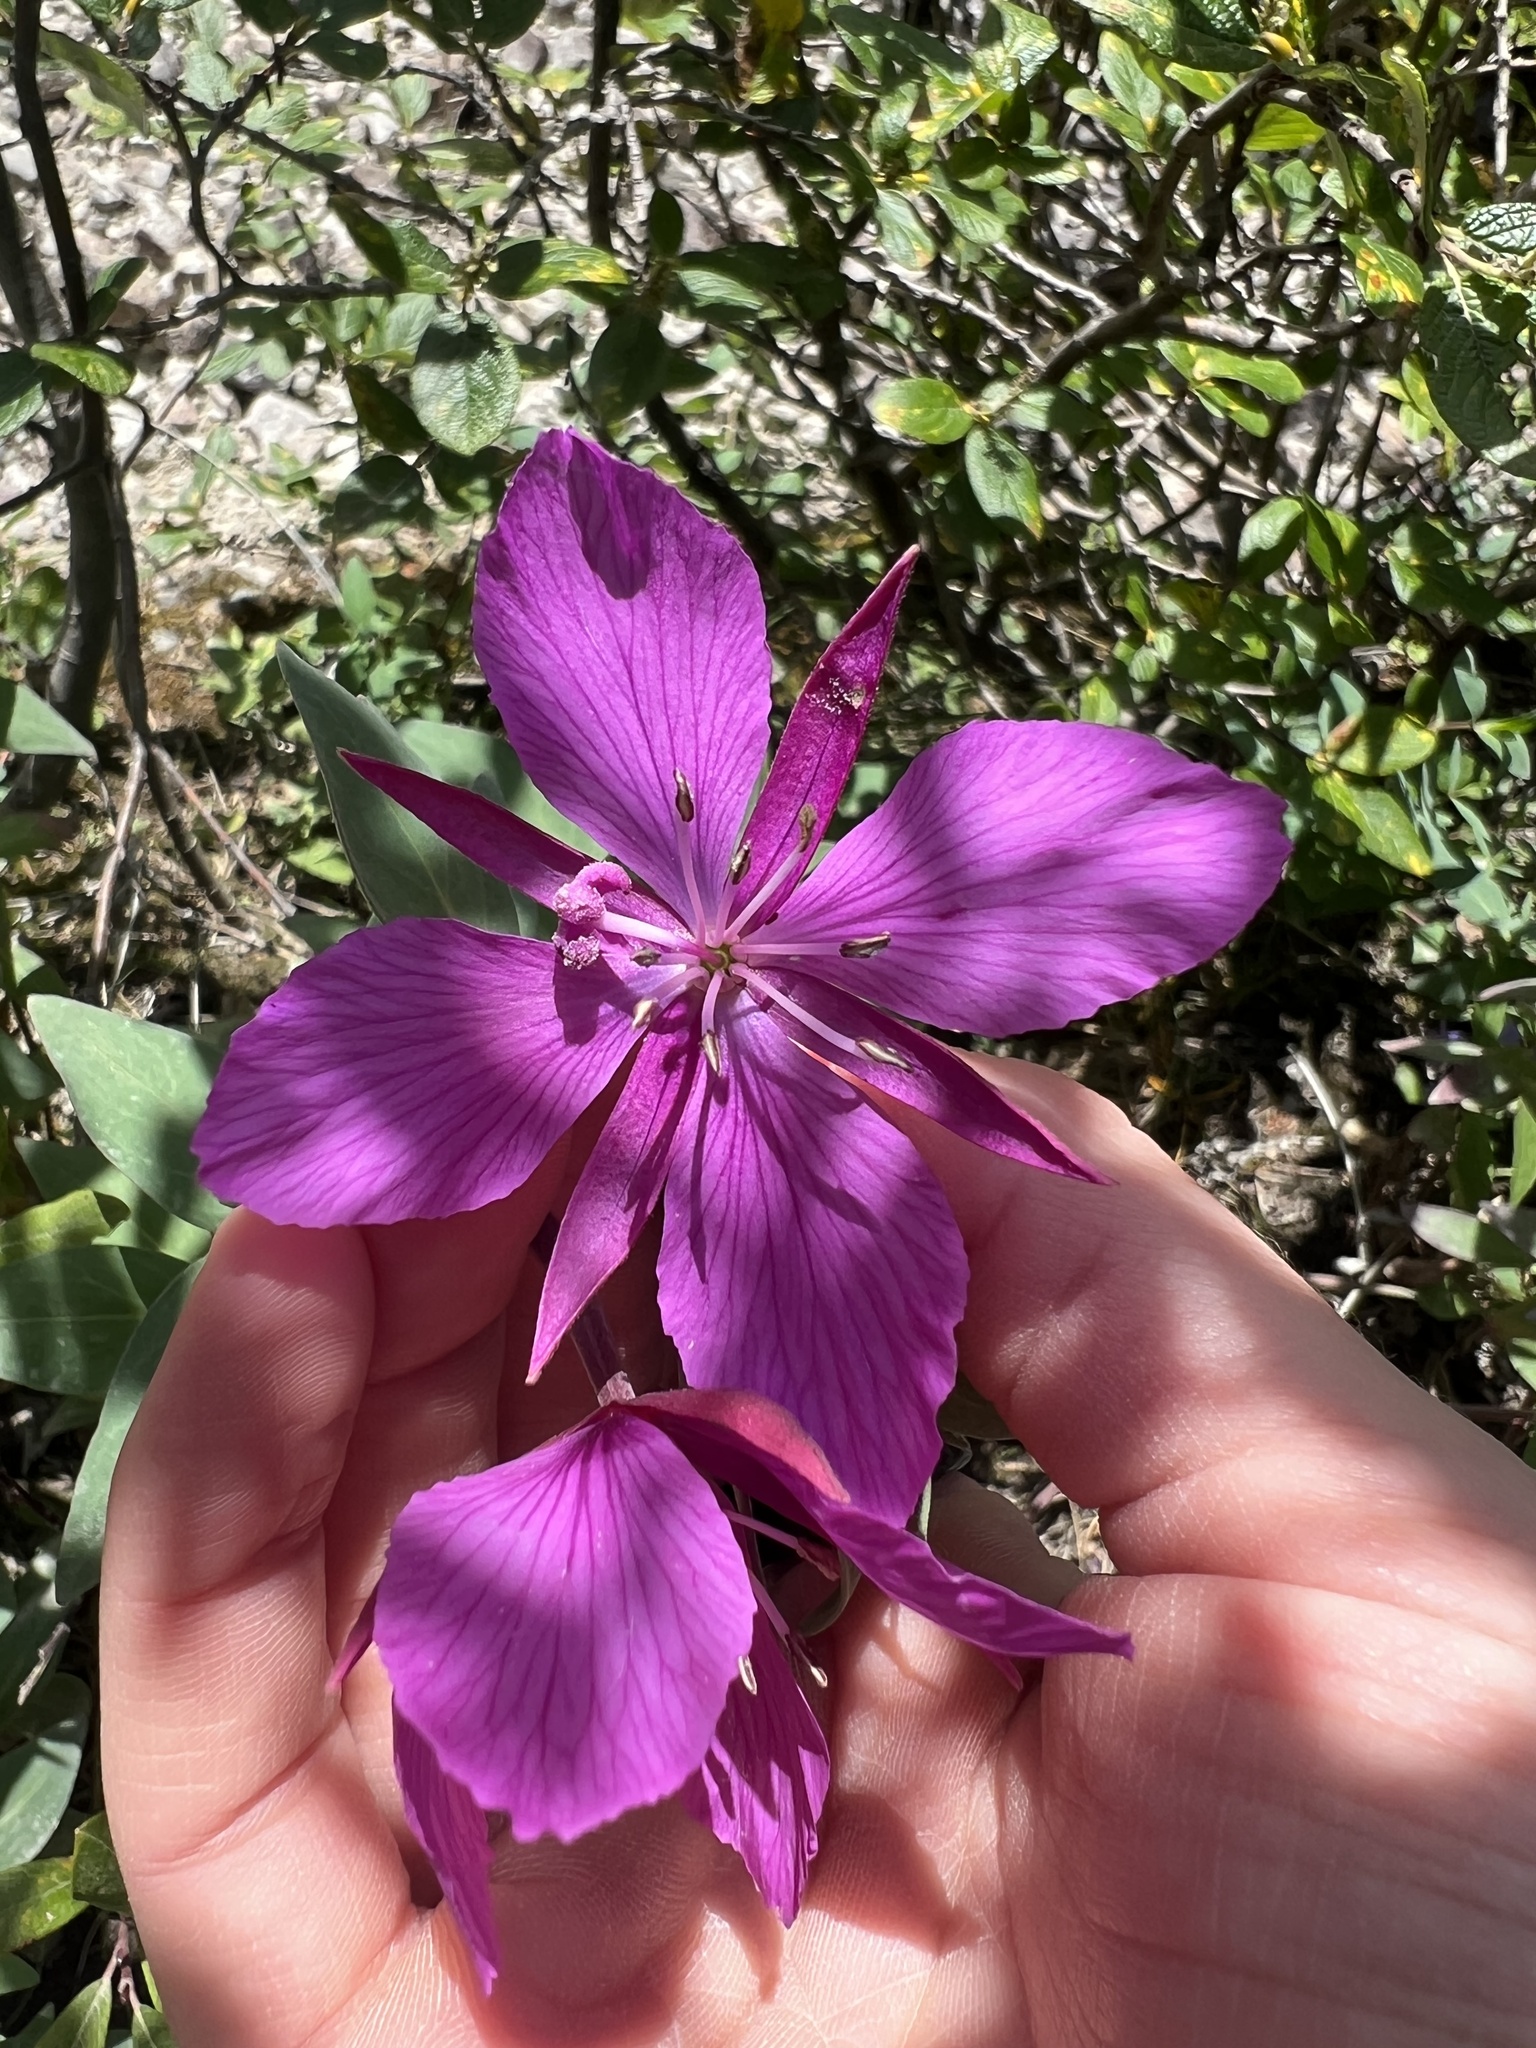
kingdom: Plantae
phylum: Tracheophyta
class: Magnoliopsida
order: Myrtales
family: Onagraceae
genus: Chamaenerion
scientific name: Chamaenerion latifolium
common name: Dwarf fireweed
